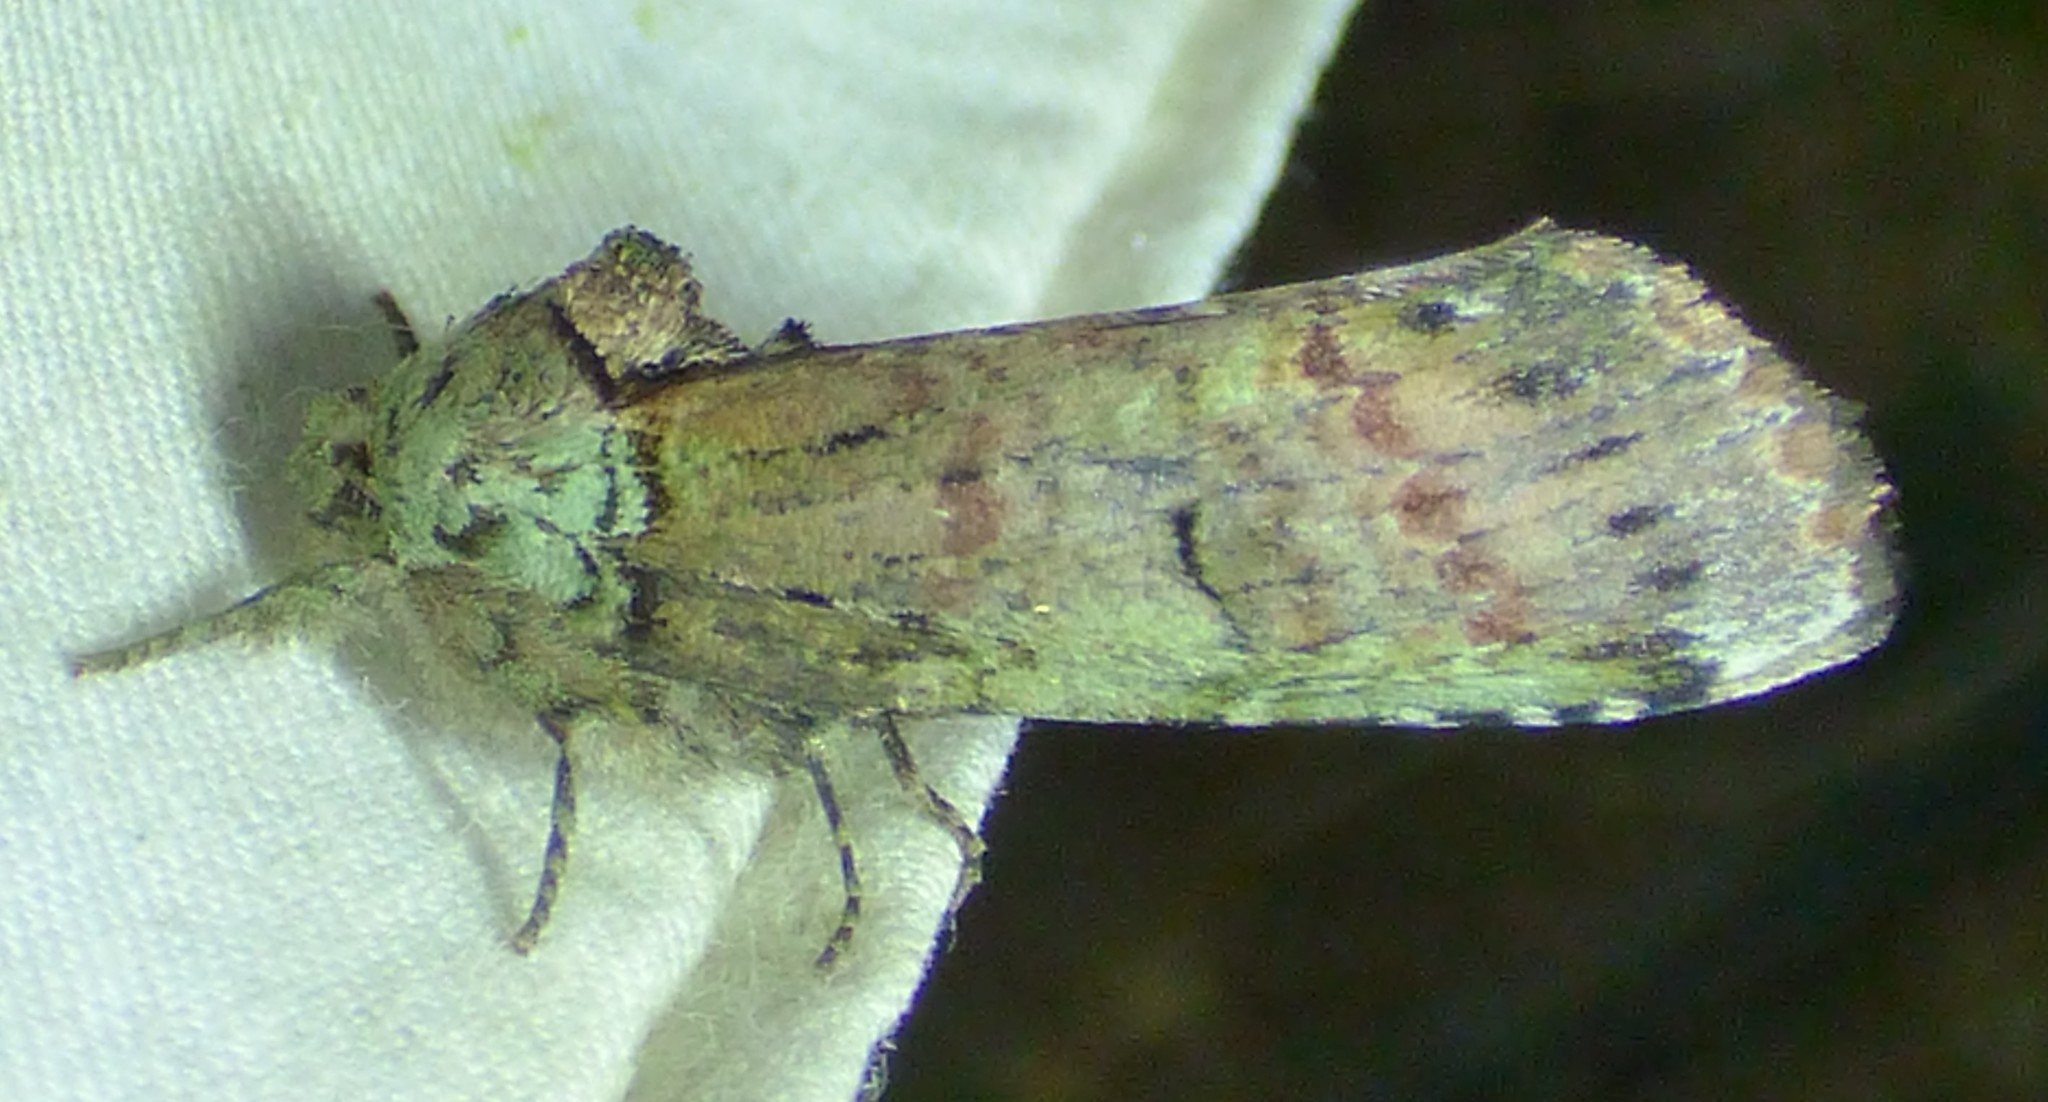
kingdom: Animalia
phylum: Arthropoda
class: Insecta
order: Lepidoptera
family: Notodontidae
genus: Schizura
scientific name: Schizura
